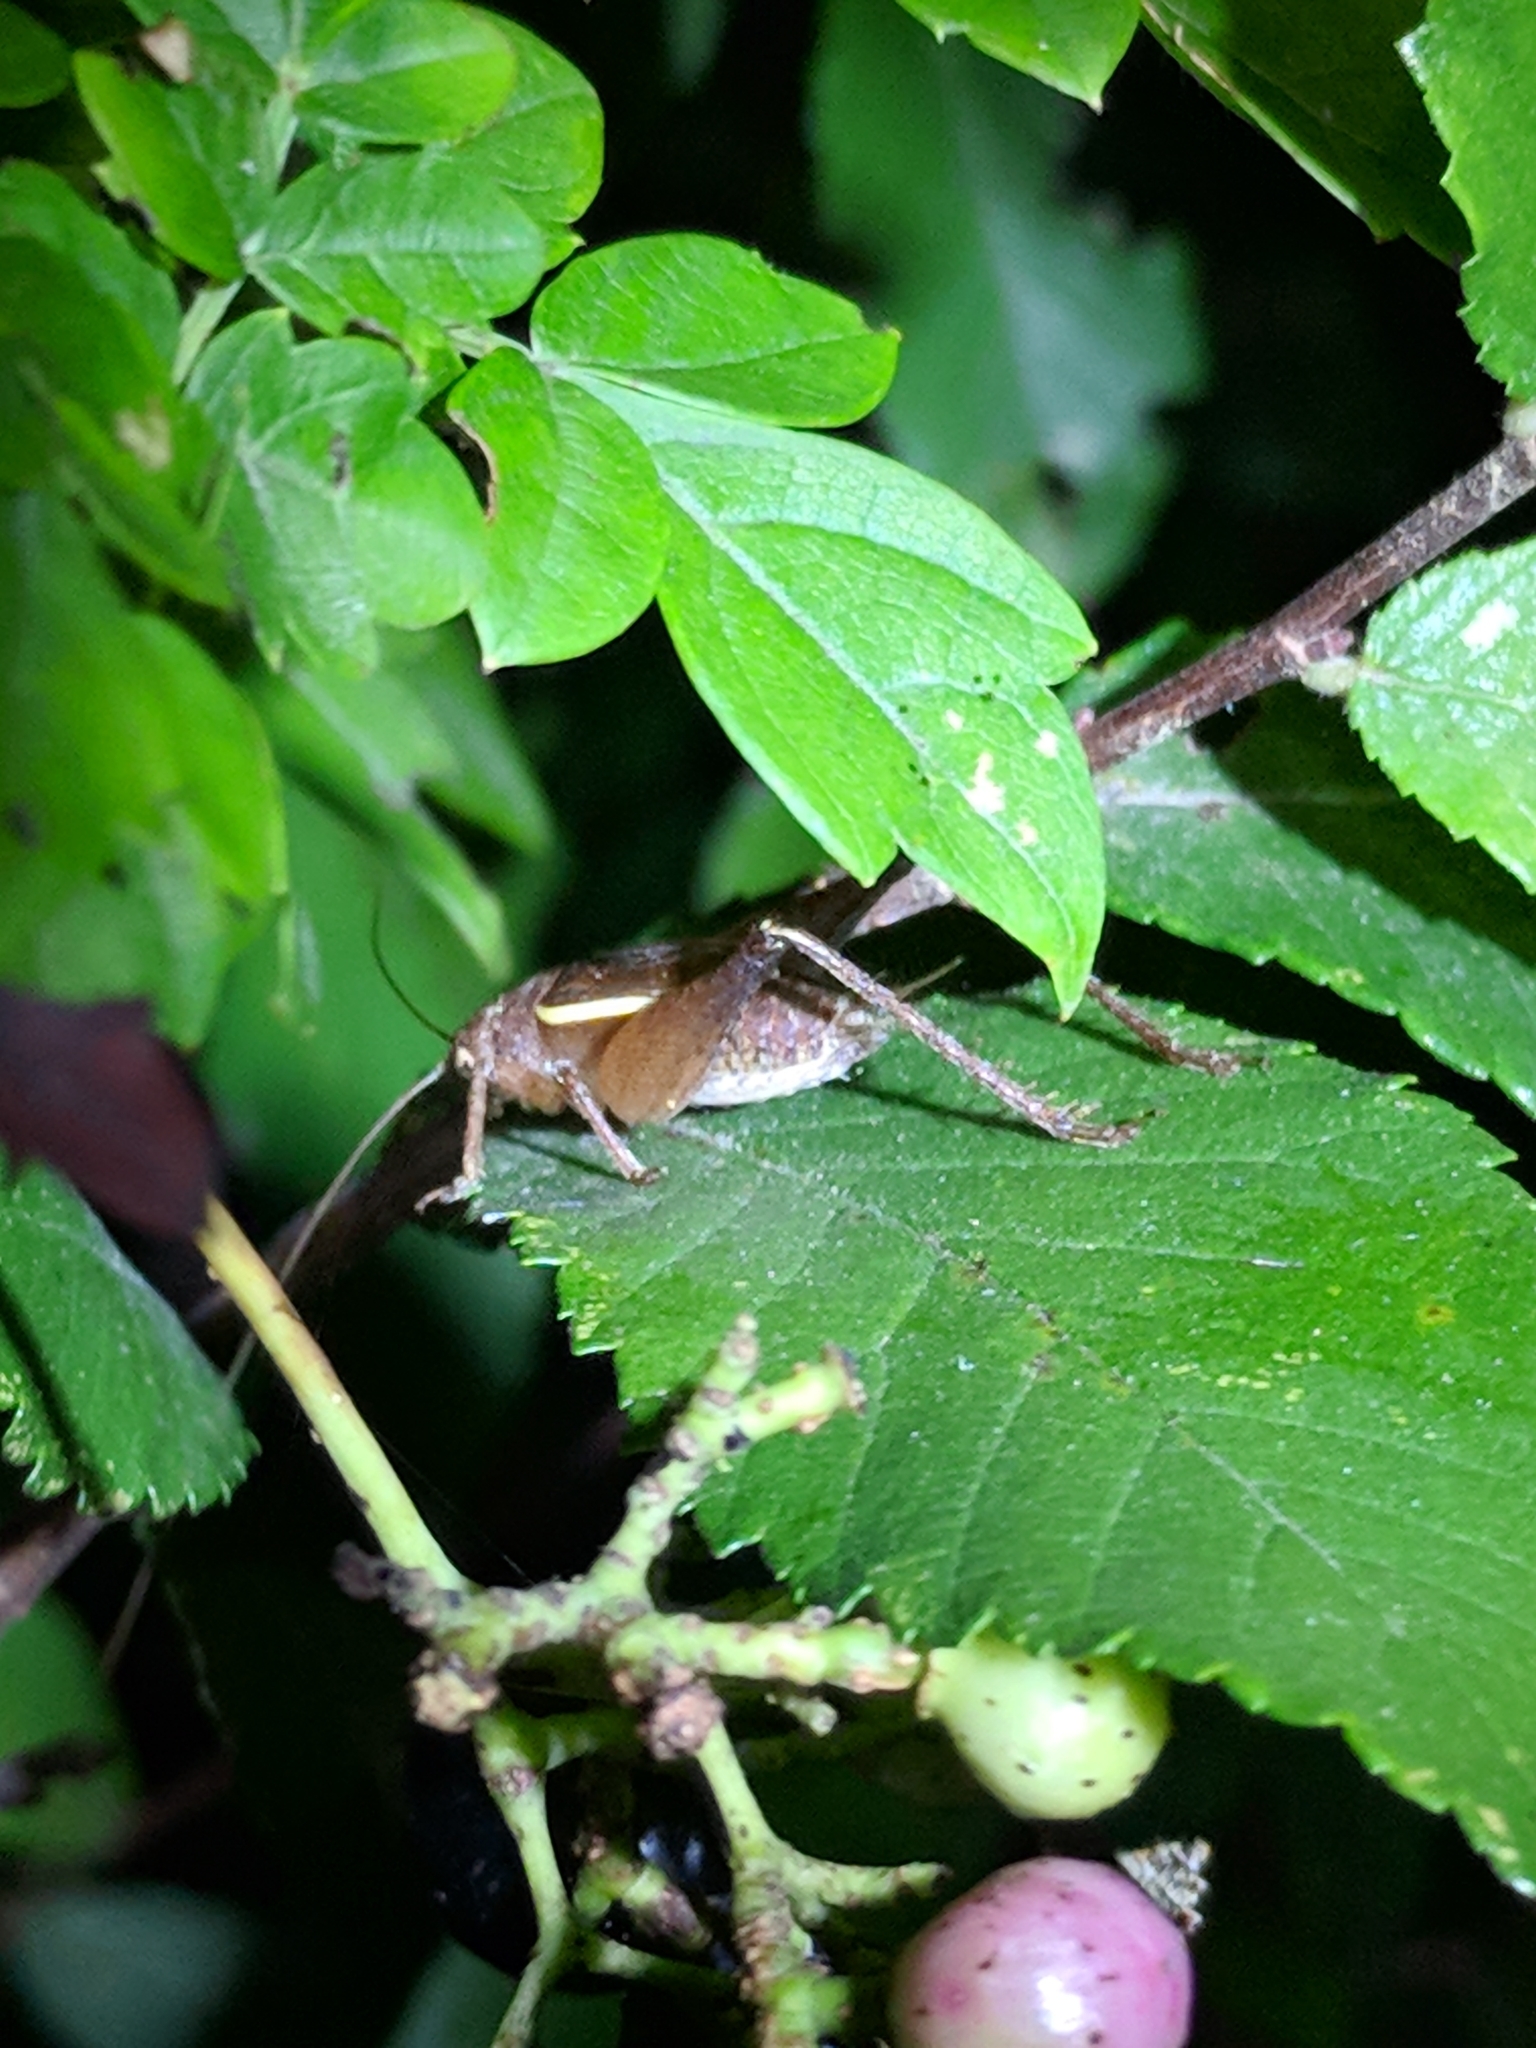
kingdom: Animalia
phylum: Arthropoda
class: Insecta
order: Orthoptera
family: Gryllidae
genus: Hapithus
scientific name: Hapithus agitator
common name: Restless bush cricket
